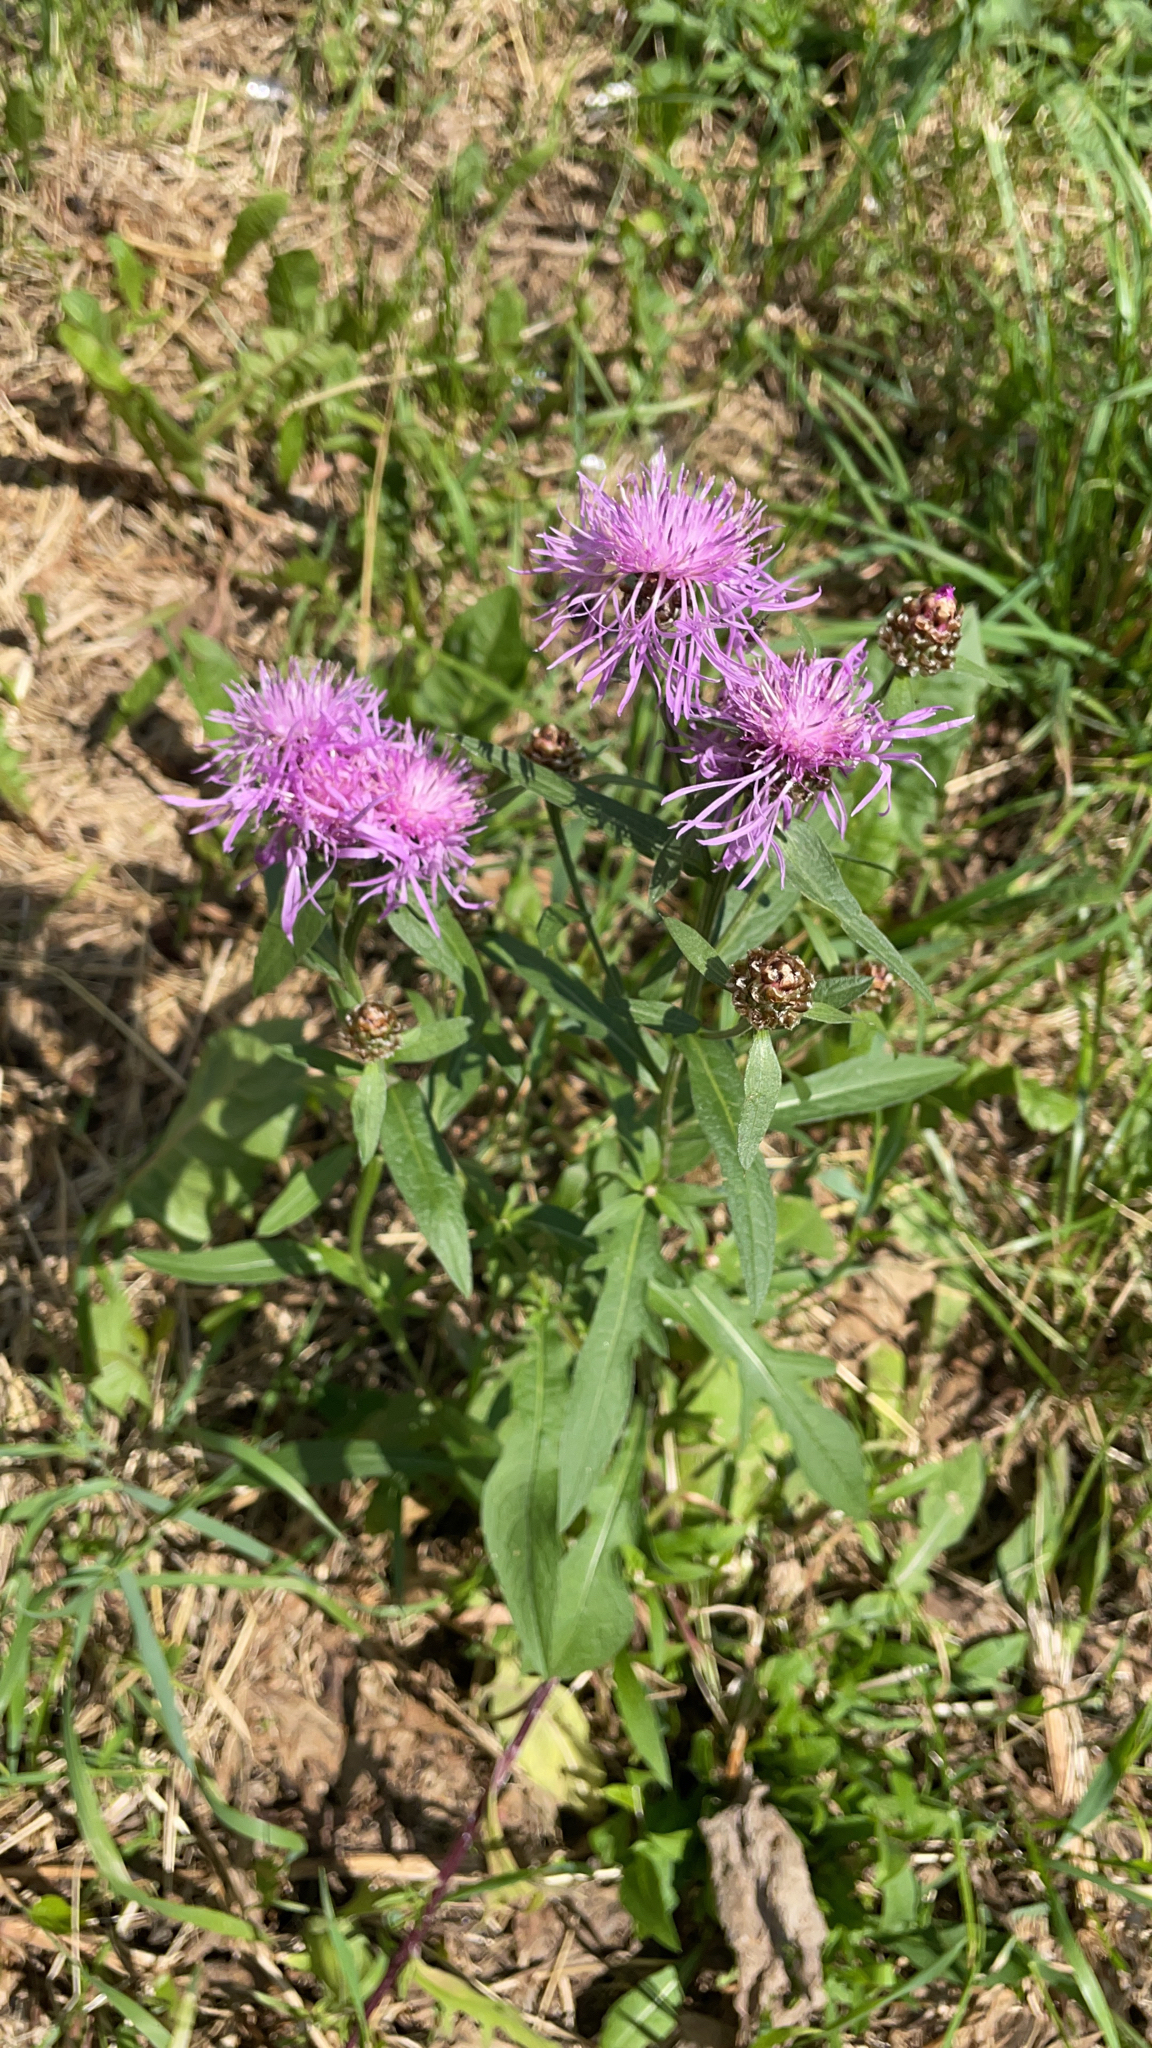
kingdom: Plantae
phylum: Tracheophyta
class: Magnoliopsida
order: Asterales
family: Asteraceae
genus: Centaurea
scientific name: Centaurea jacea
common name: Brown knapweed
